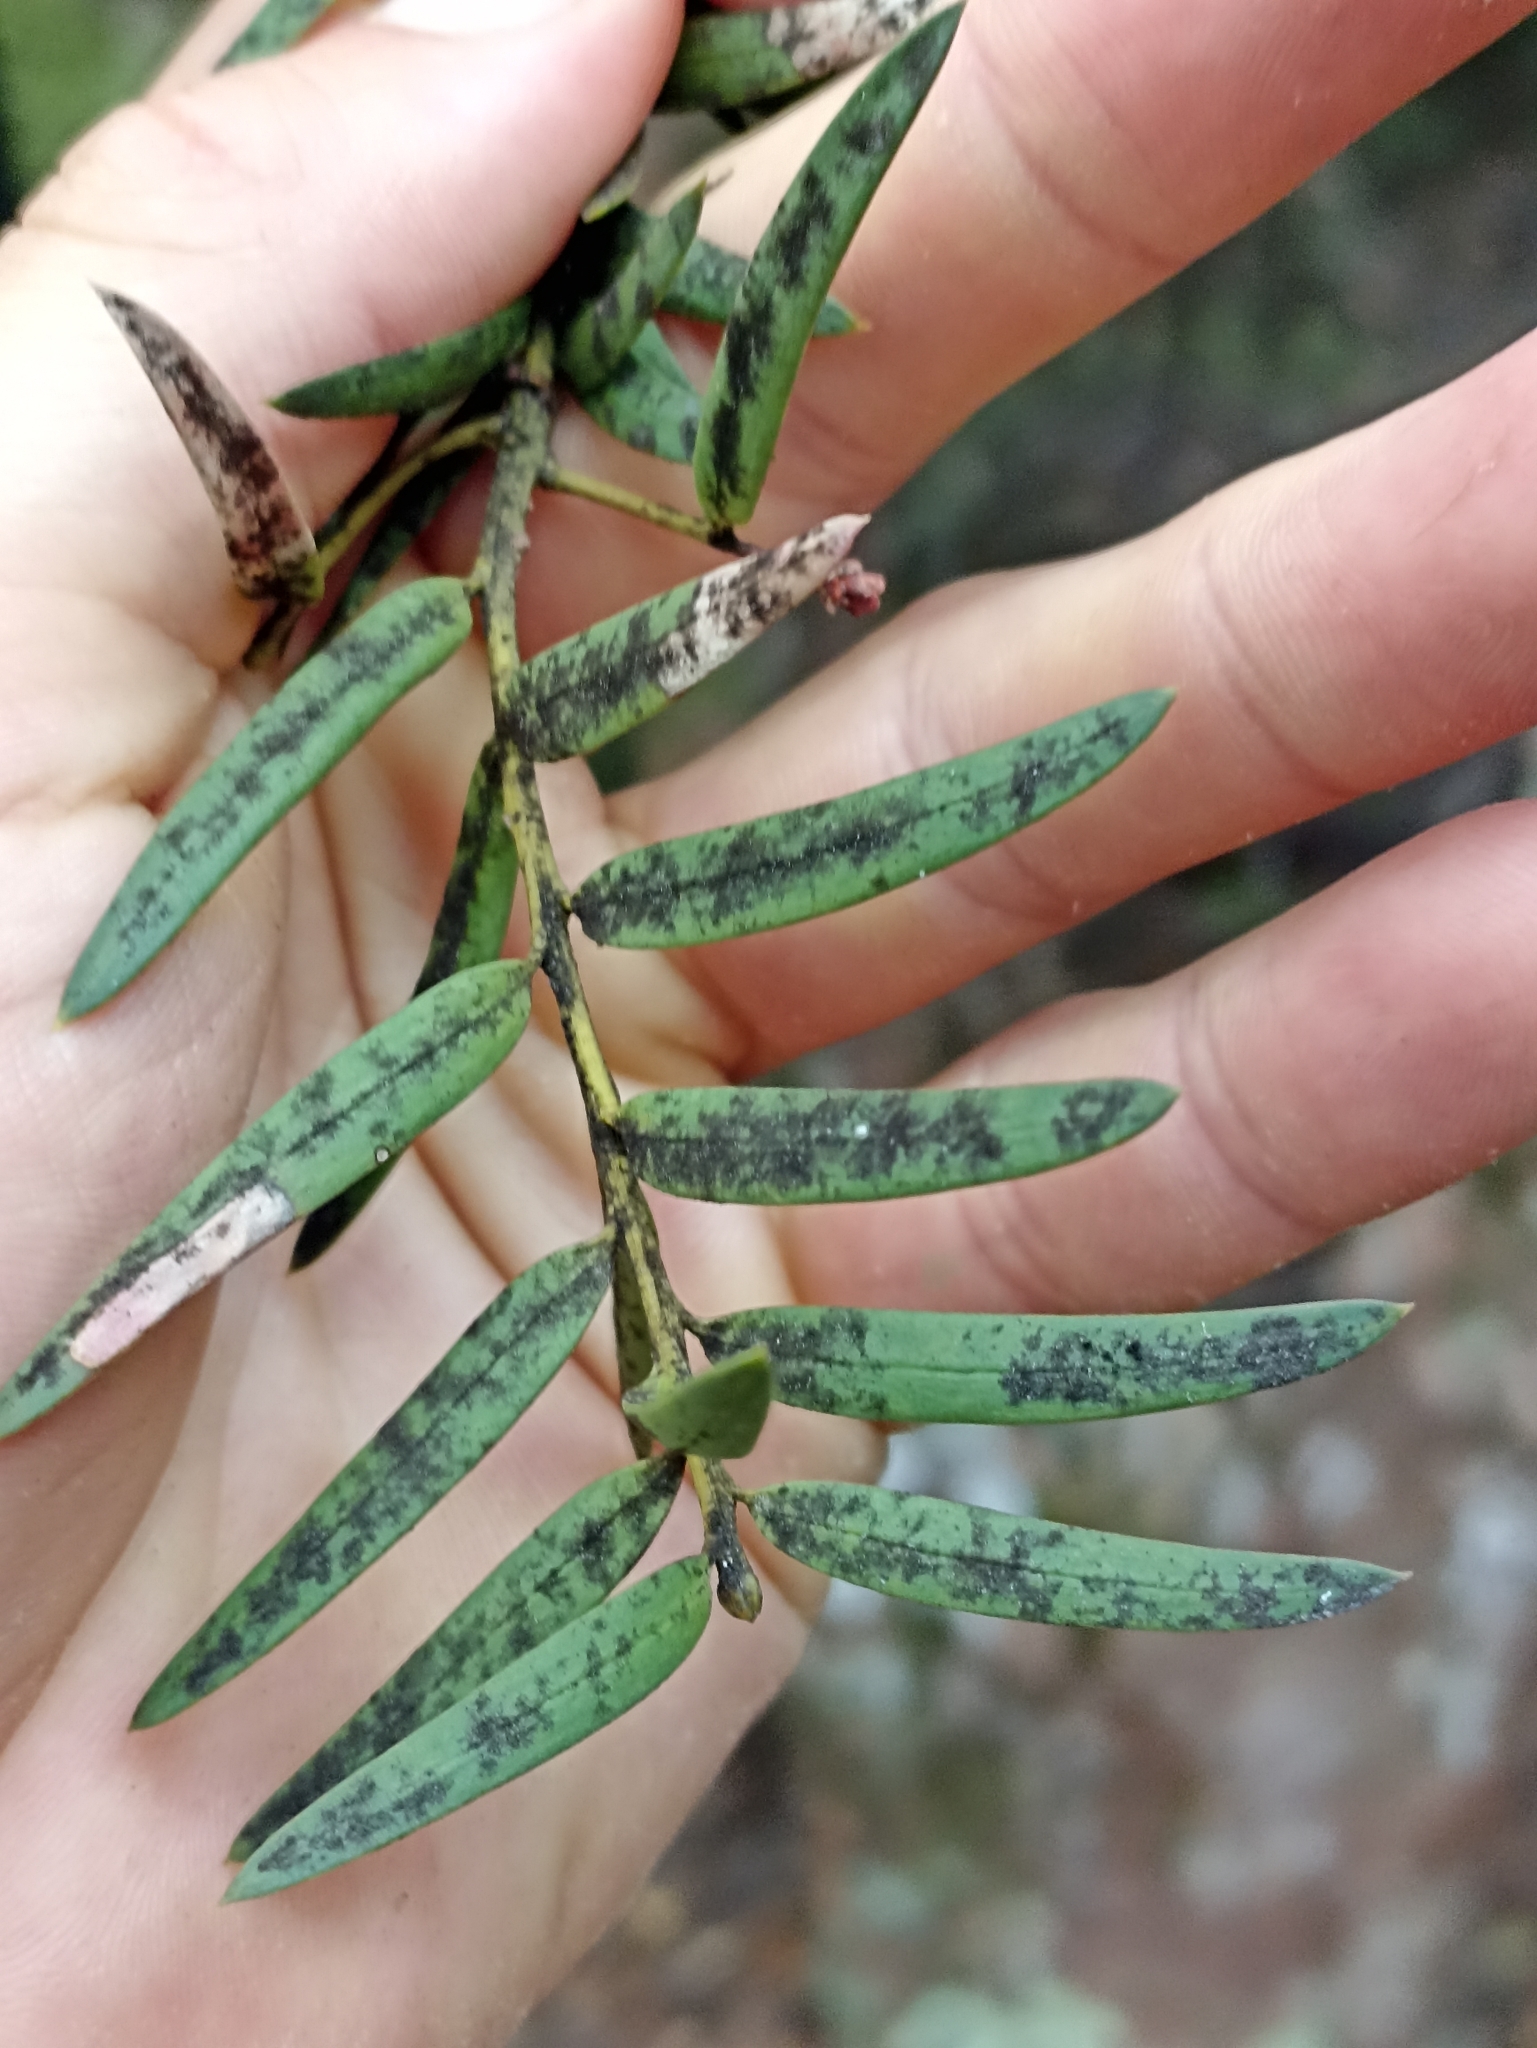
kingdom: Plantae
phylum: Tracheophyta
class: Pinopsida
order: Pinales
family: Podocarpaceae
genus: Podocarpus
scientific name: Podocarpus laetus
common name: Hall's totara
